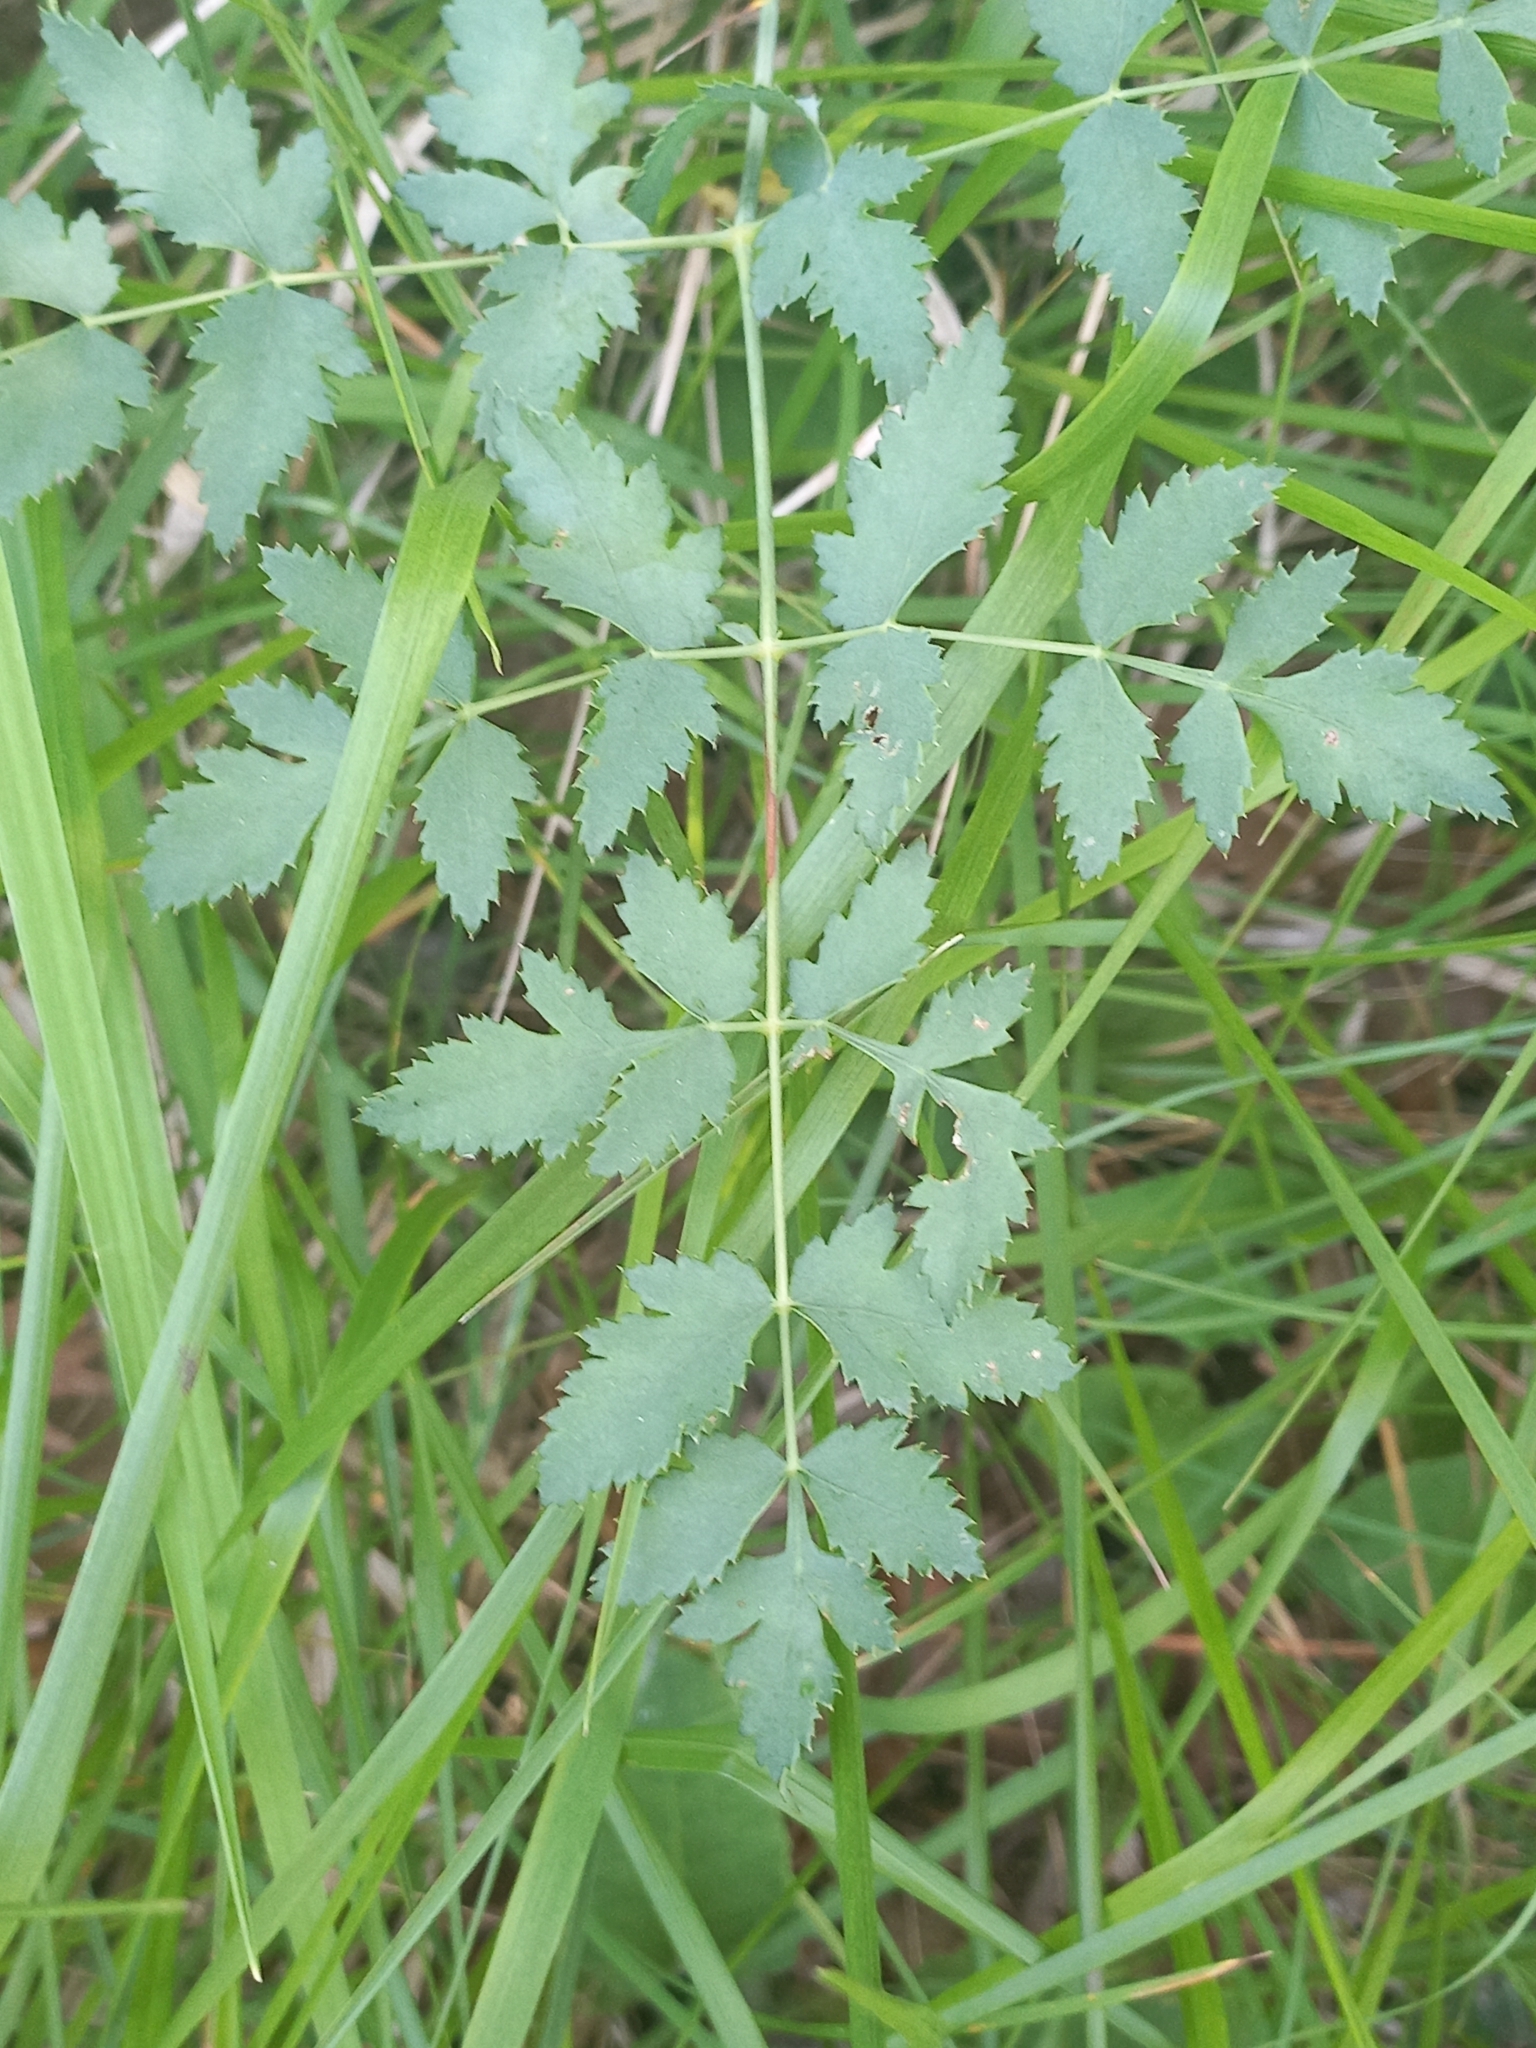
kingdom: Plantae
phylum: Tracheophyta
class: Magnoliopsida
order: Apiales
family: Apiaceae
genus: Cervaria
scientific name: Cervaria rivini
